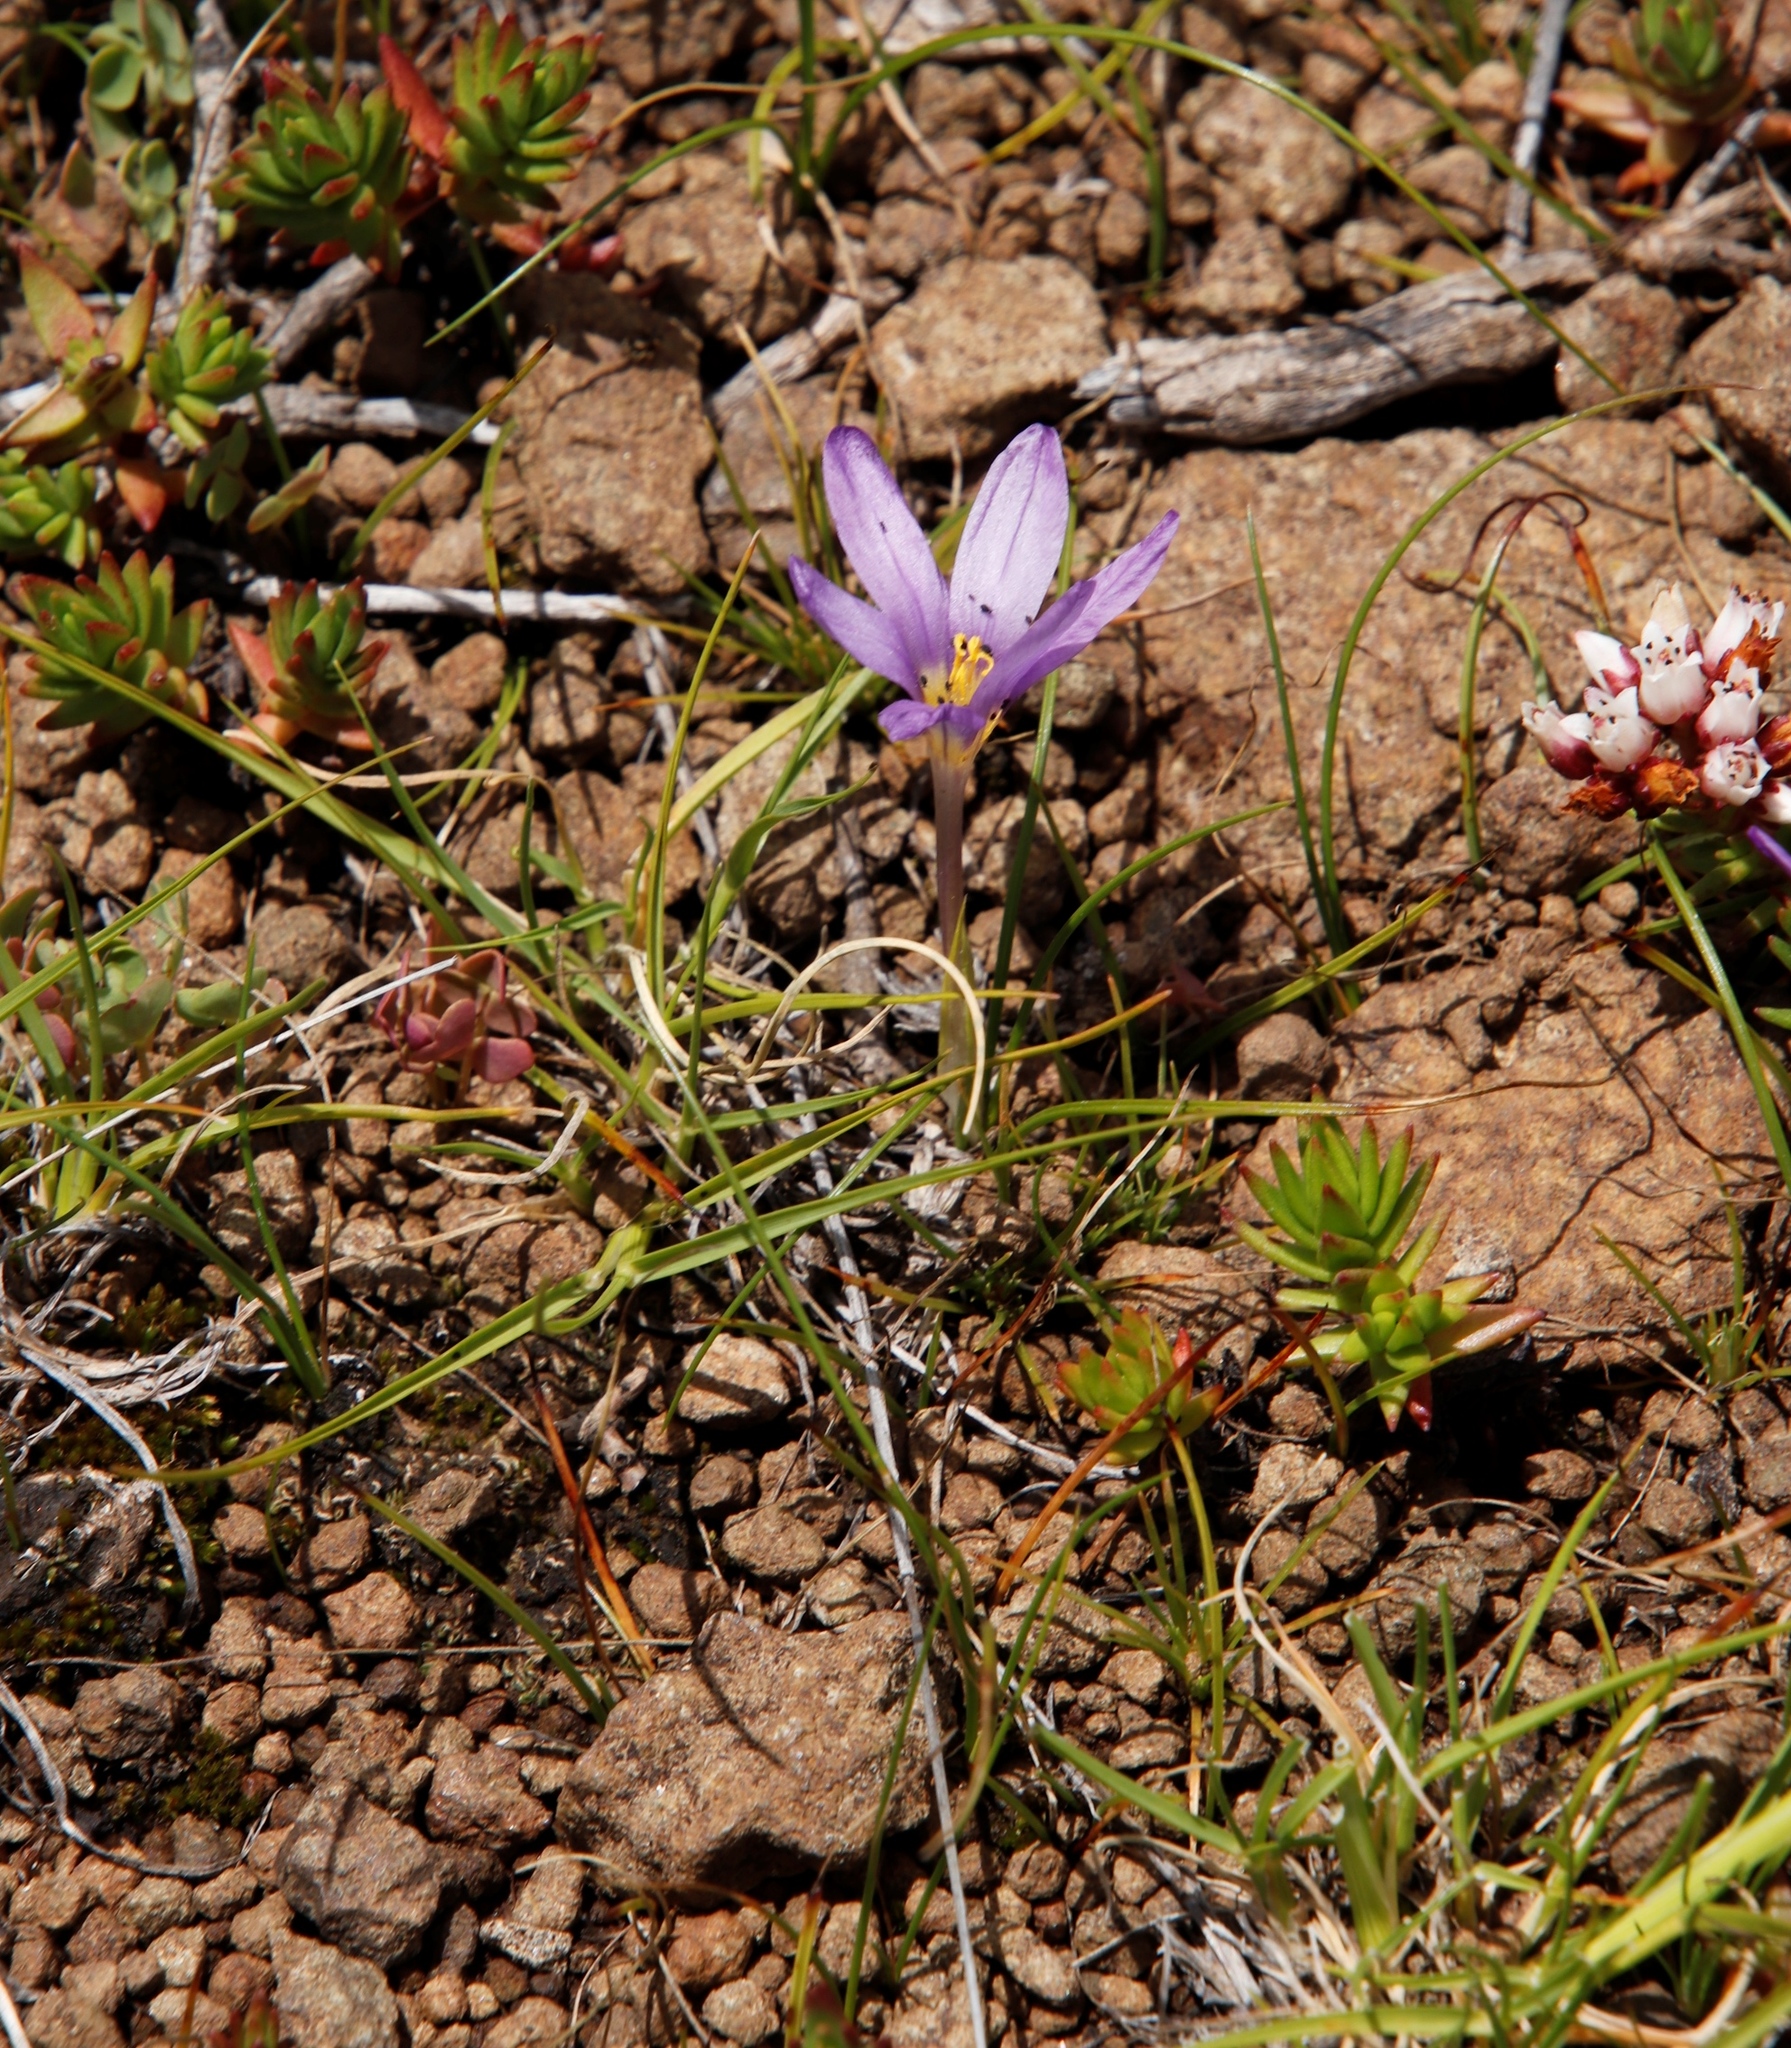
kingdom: Plantae
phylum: Tracheophyta
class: Liliopsida
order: Asparagales
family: Iridaceae
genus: Syringodea
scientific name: Syringodea bifucata
